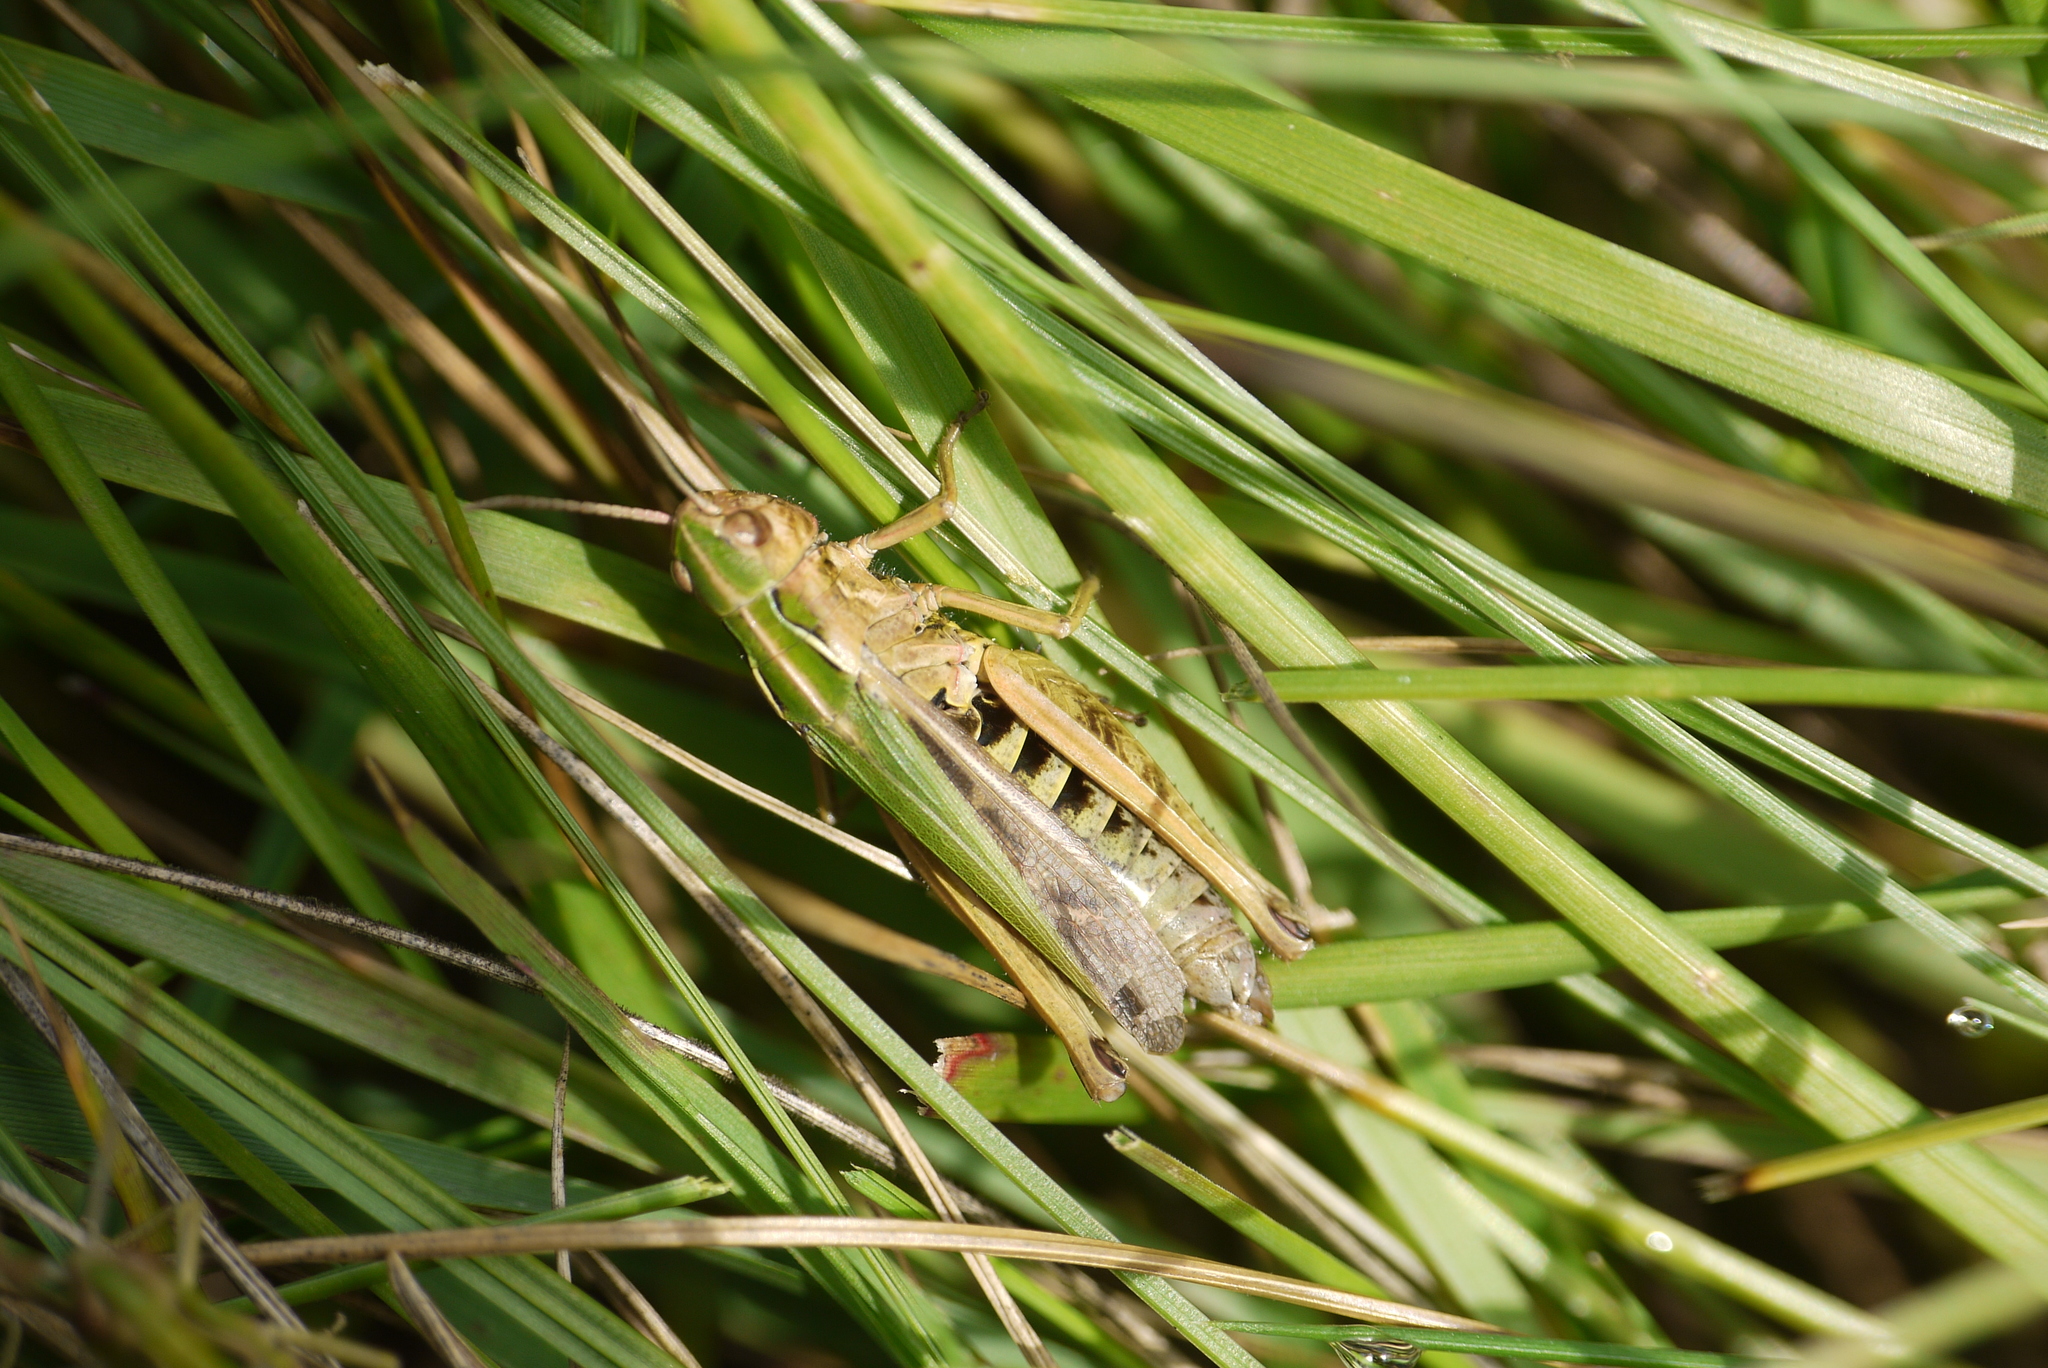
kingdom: Animalia
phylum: Arthropoda
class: Insecta
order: Orthoptera
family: Acrididae
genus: Omocestus
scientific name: Omocestus viridulus
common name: Common green grasshopper
